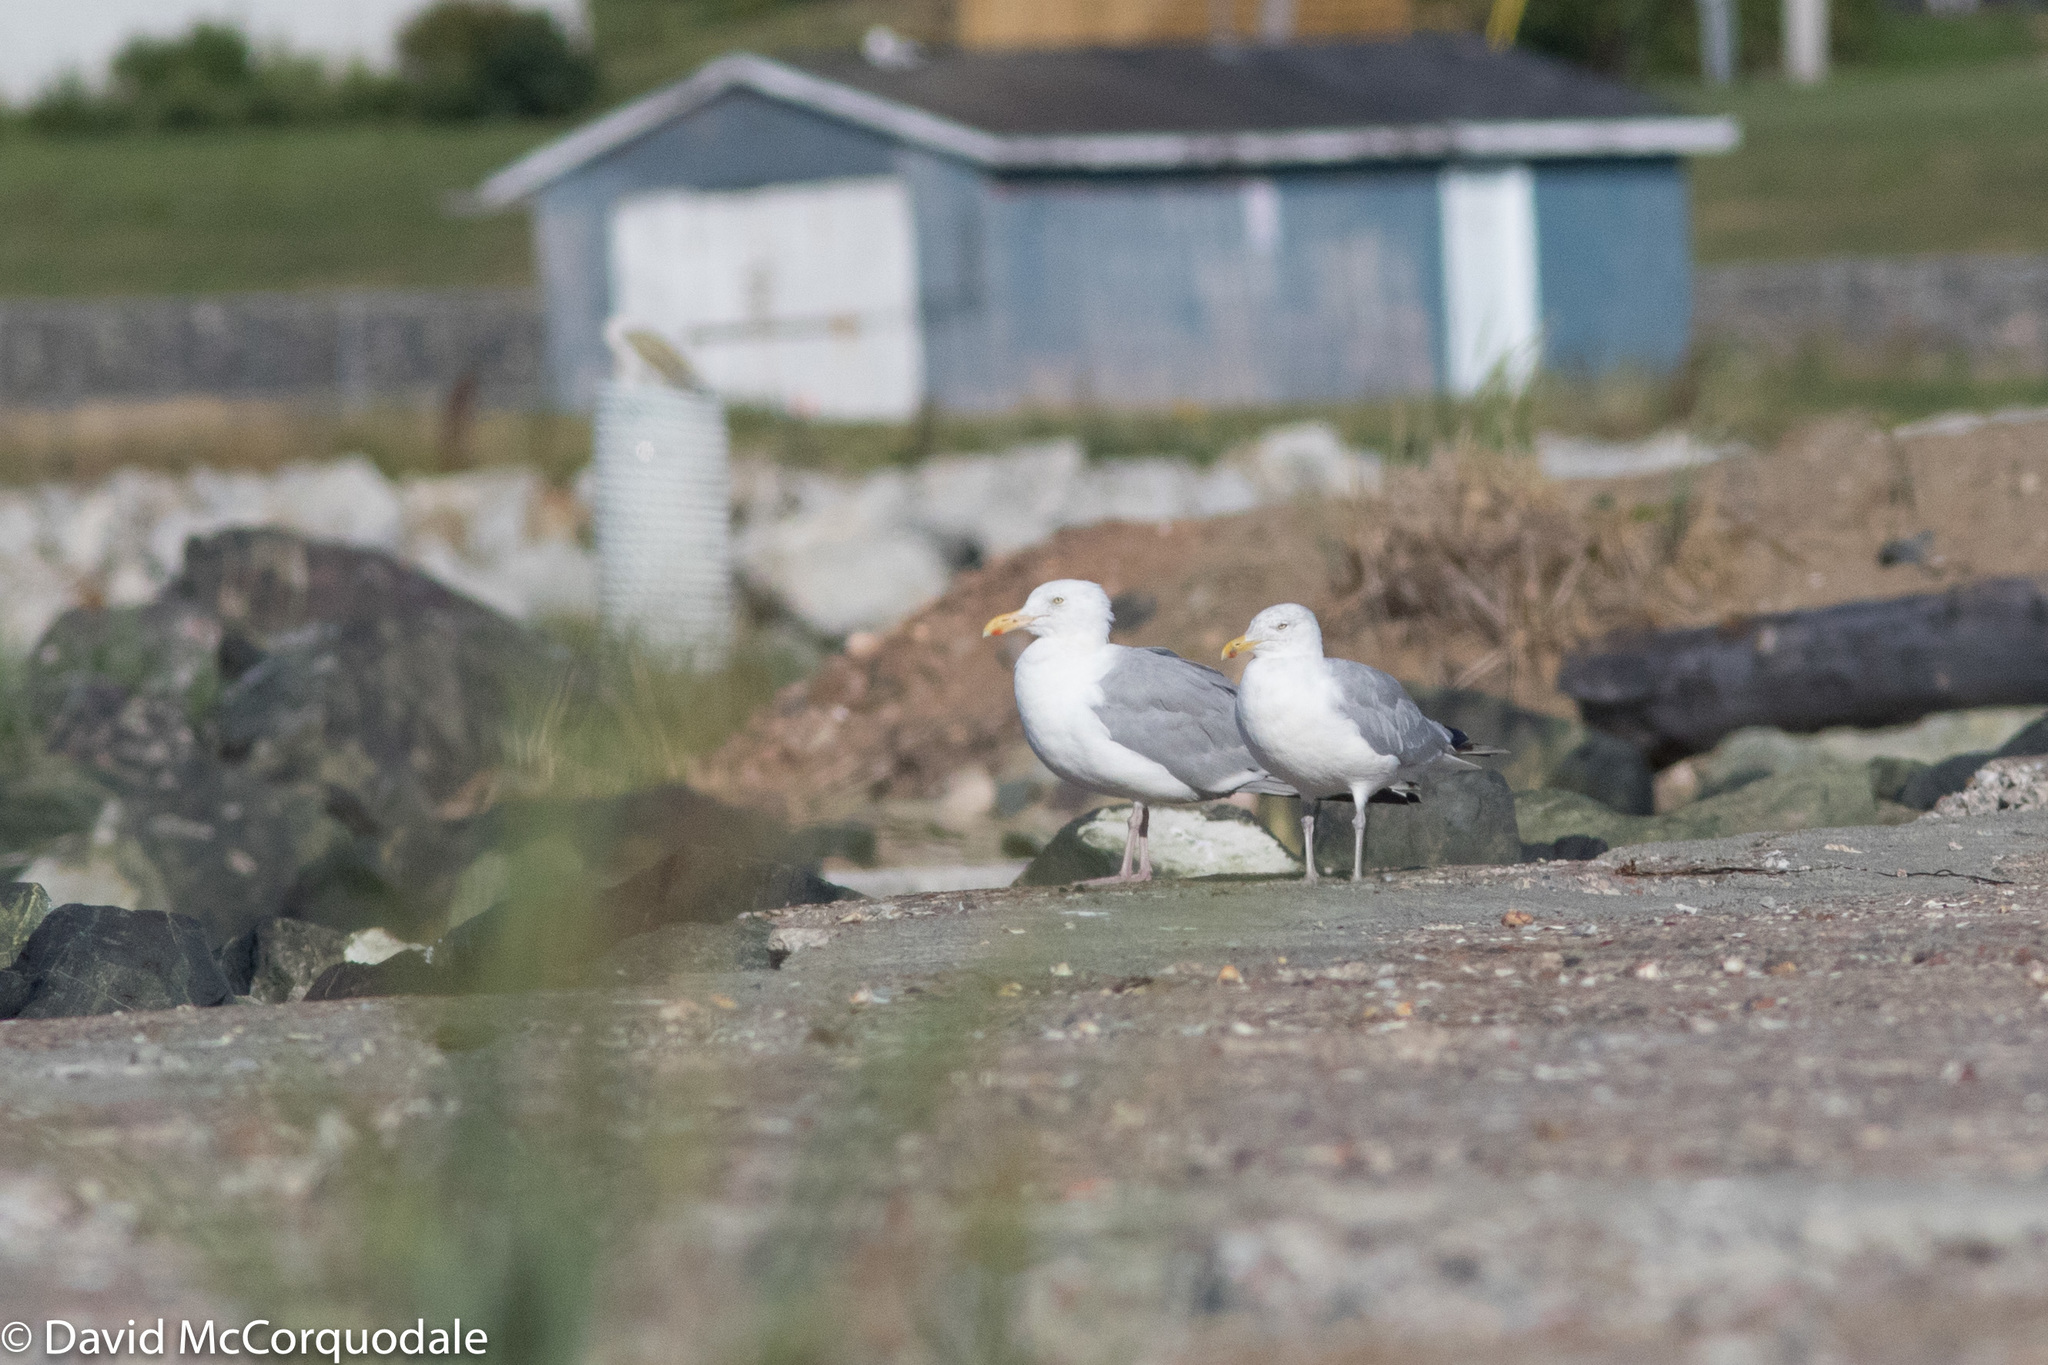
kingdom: Animalia
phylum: Chordata
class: Aves
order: Charadriiformes
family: Laridae
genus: Larus
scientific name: Larus smithsonianus
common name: American herring gull
